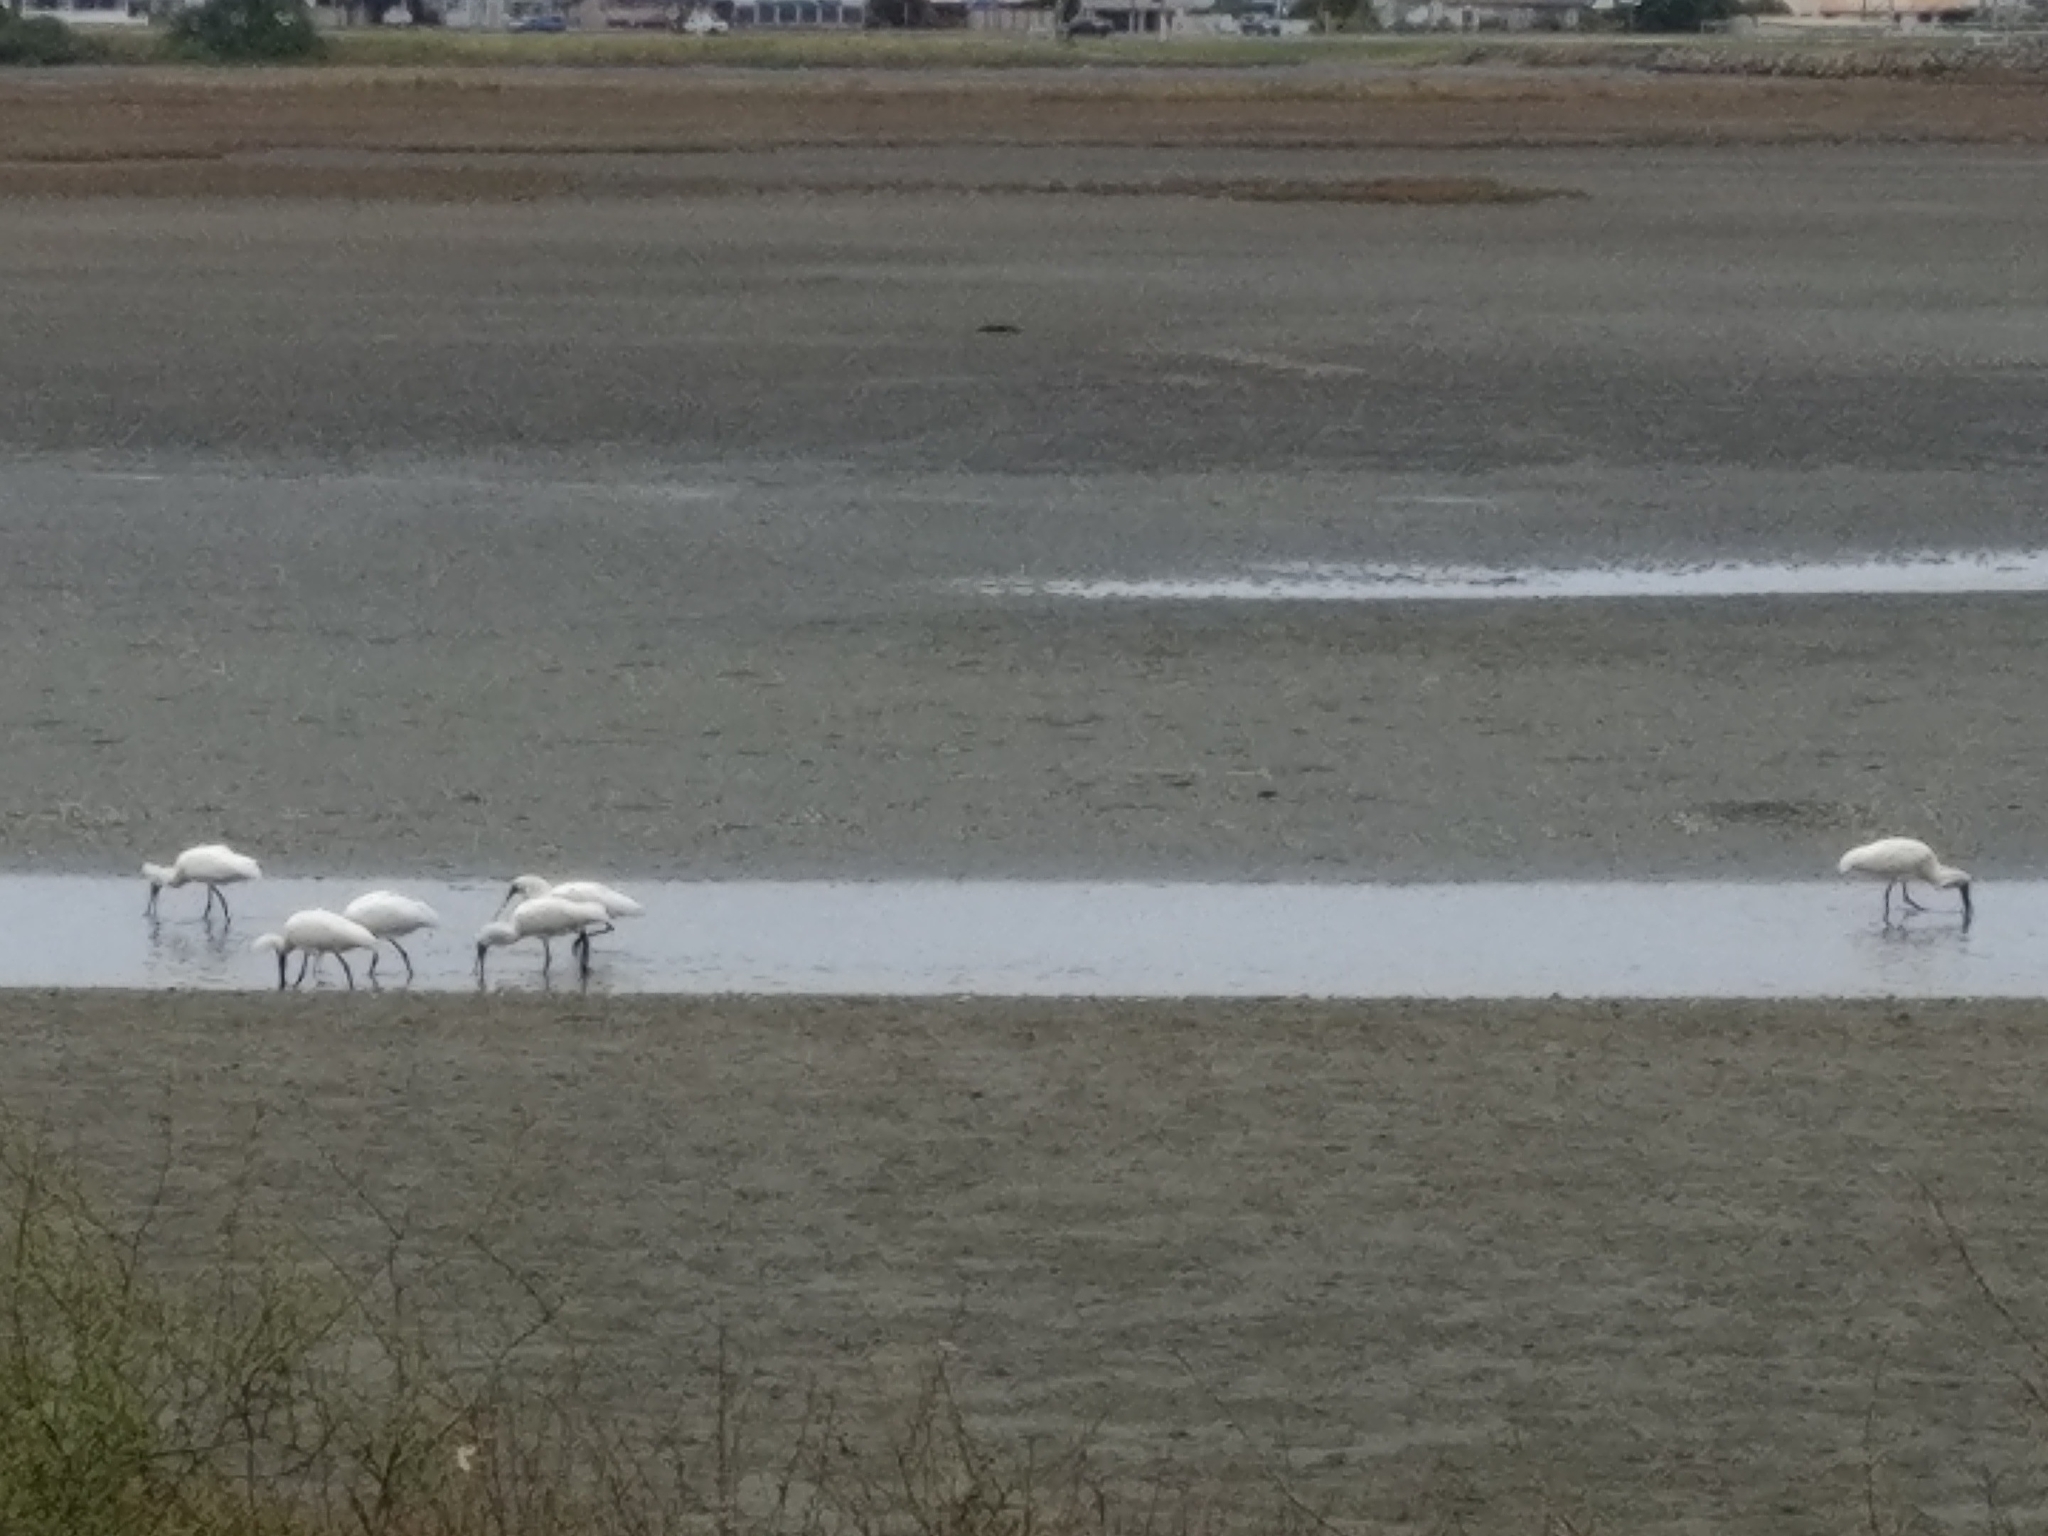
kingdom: Animalia
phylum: Chordata
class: Aves
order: Pelecaniformes
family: Threskiornithidae
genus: Platalea
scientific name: Platalea regia
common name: Royal spoonbill
